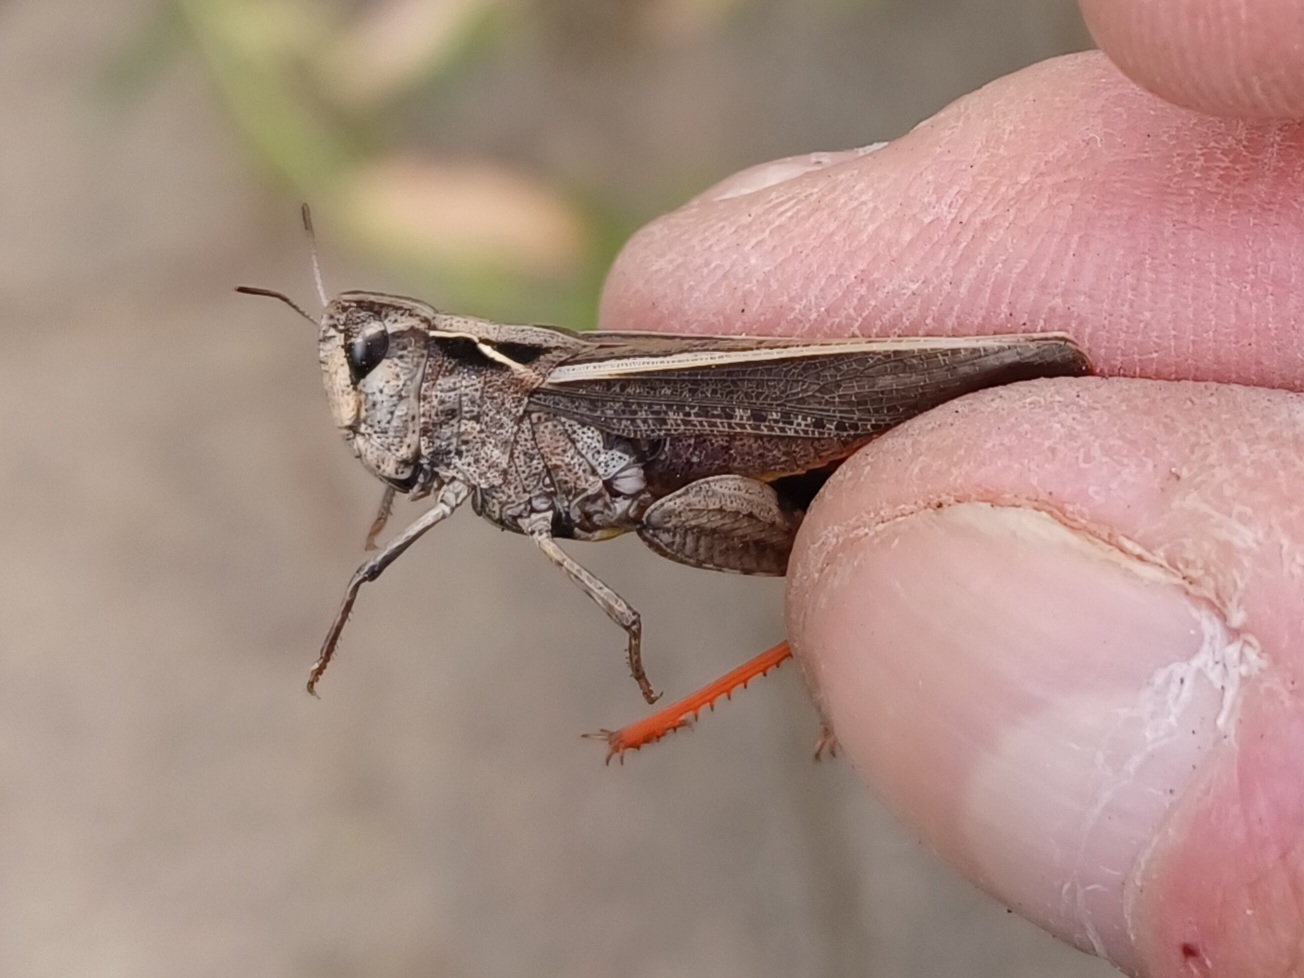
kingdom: Animalia
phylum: Arthropoda
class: Insecta
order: Orthoptera
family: Acrididae
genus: Cryptobothrus
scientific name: Cryptobothrus chrysophorus
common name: Golden bandwing
